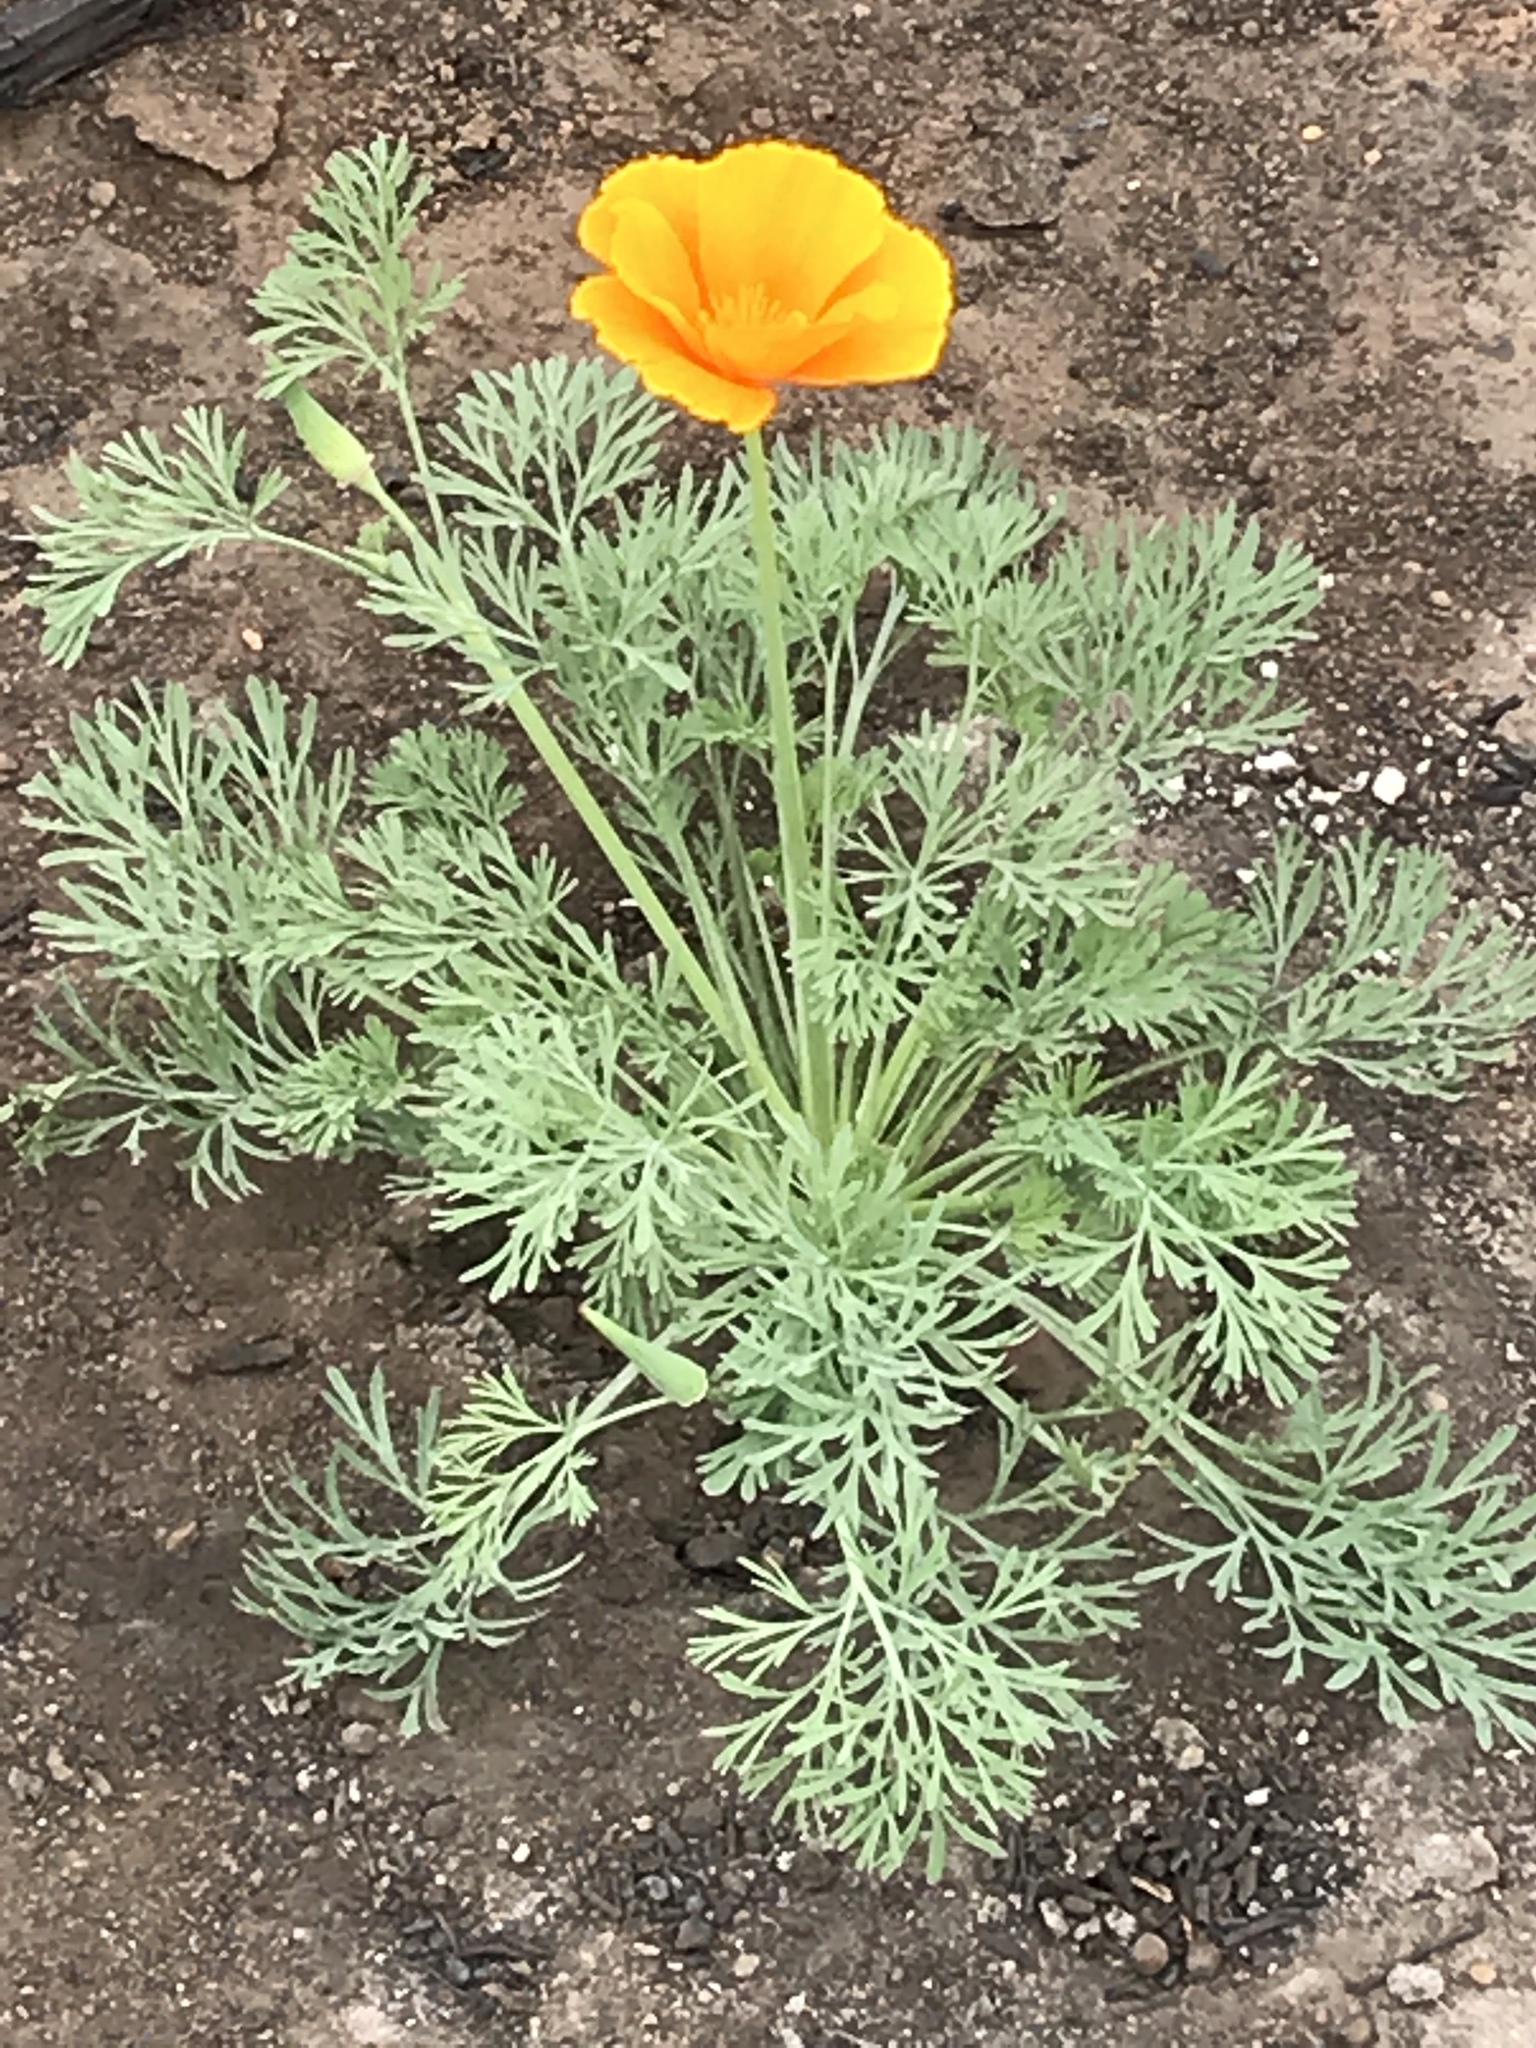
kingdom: Plantae
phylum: Tracheophyta
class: Magnoliopsida
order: Ranunculales
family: Papaveraceae
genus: Eschscholzia
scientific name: Eschscholzia californica
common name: California poppy
